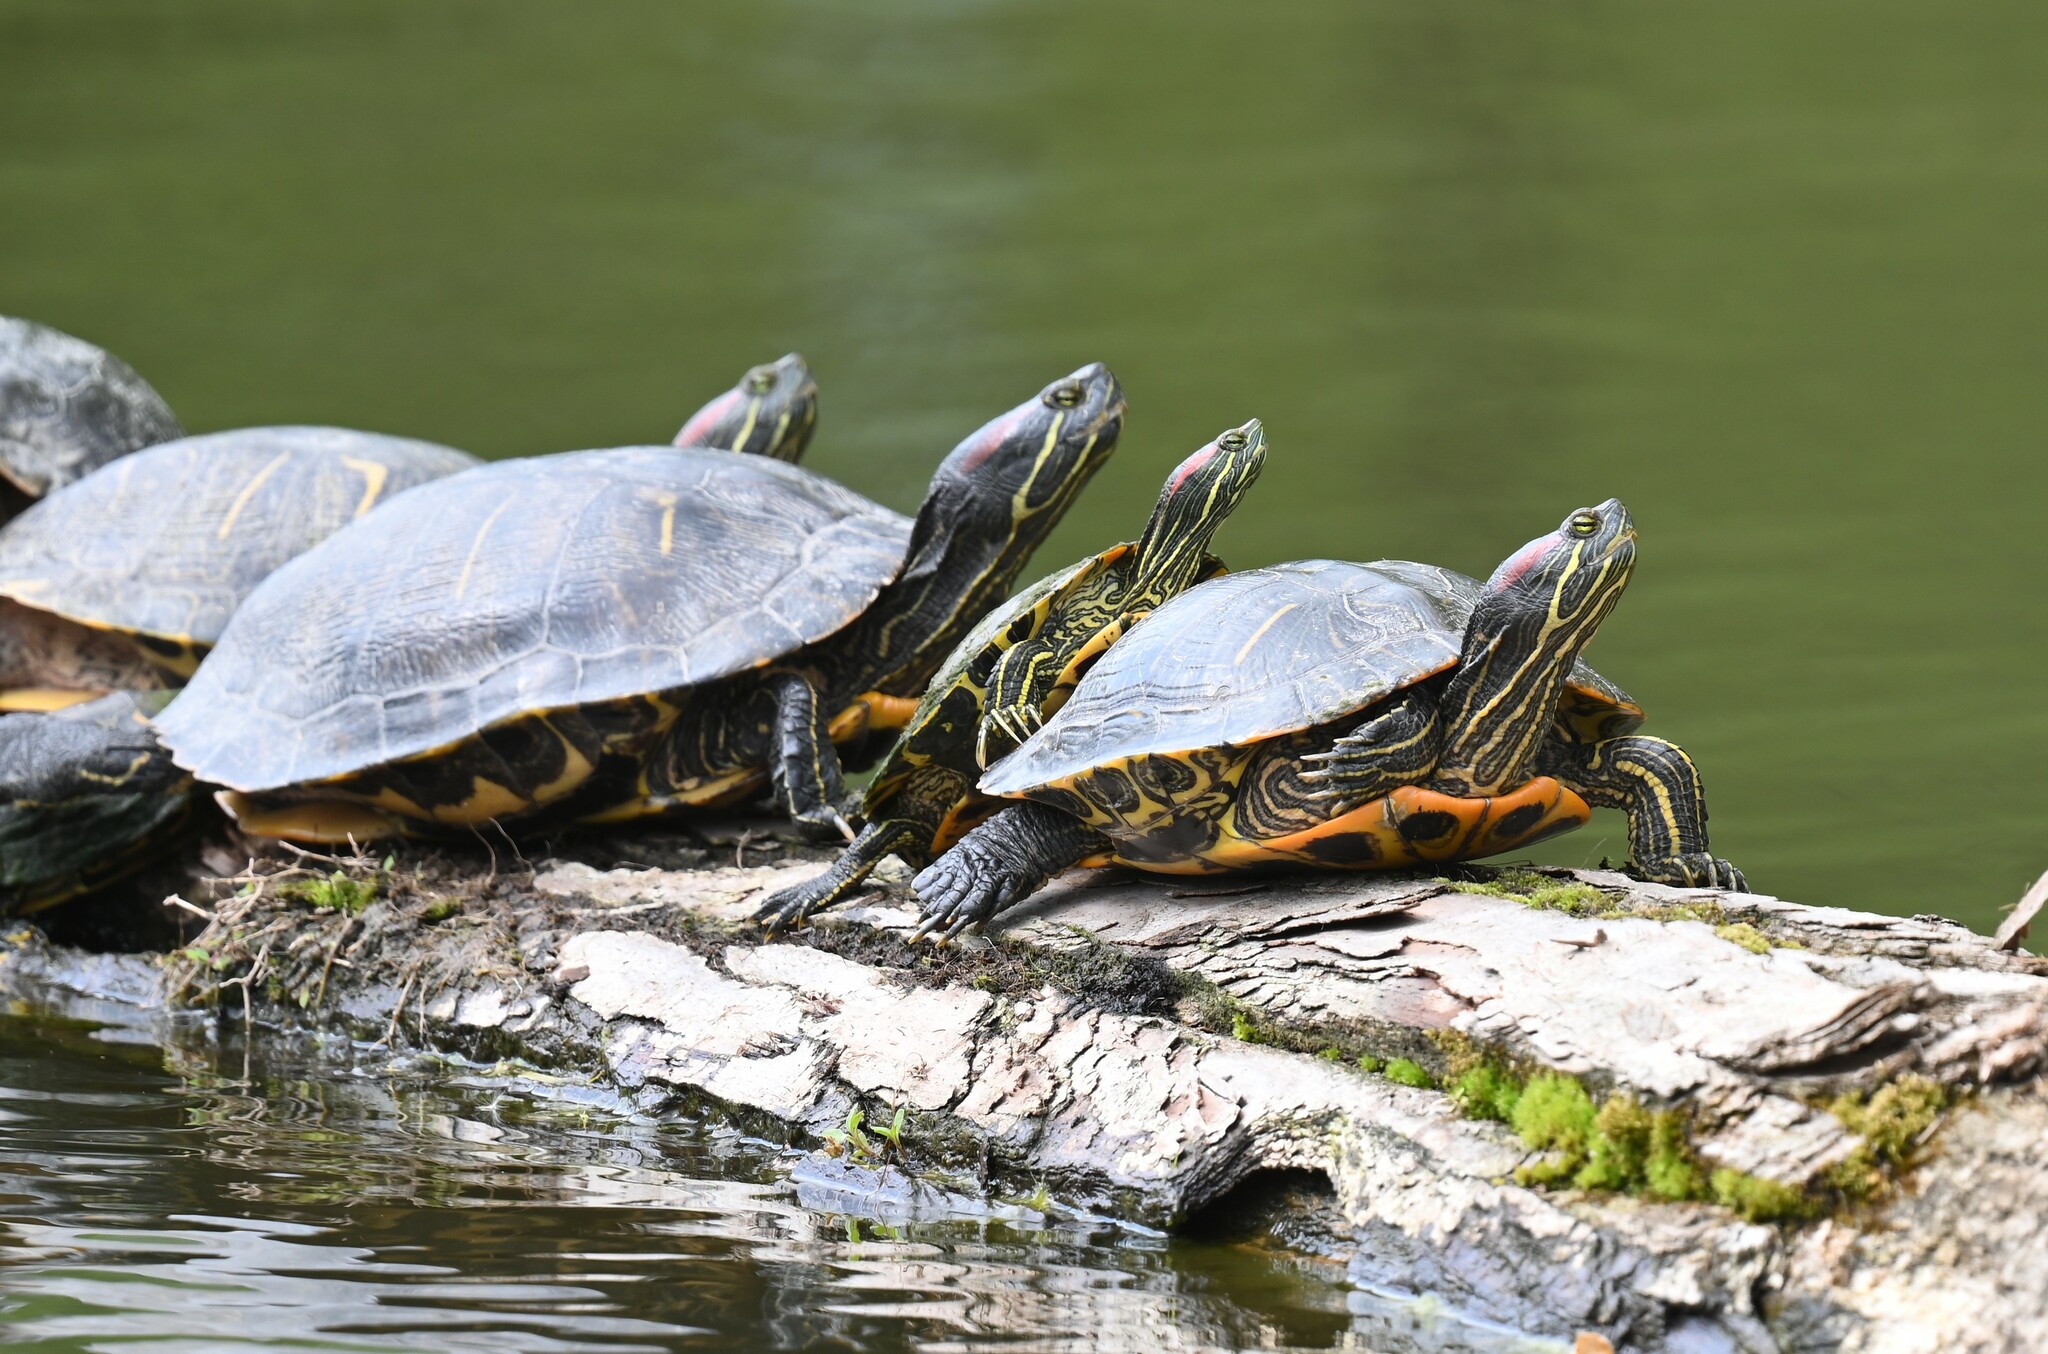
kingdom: Animalia
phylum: Chordata
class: Testudines
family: Emydidae
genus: Trachemys
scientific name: Trachemys scripta
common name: Slider
